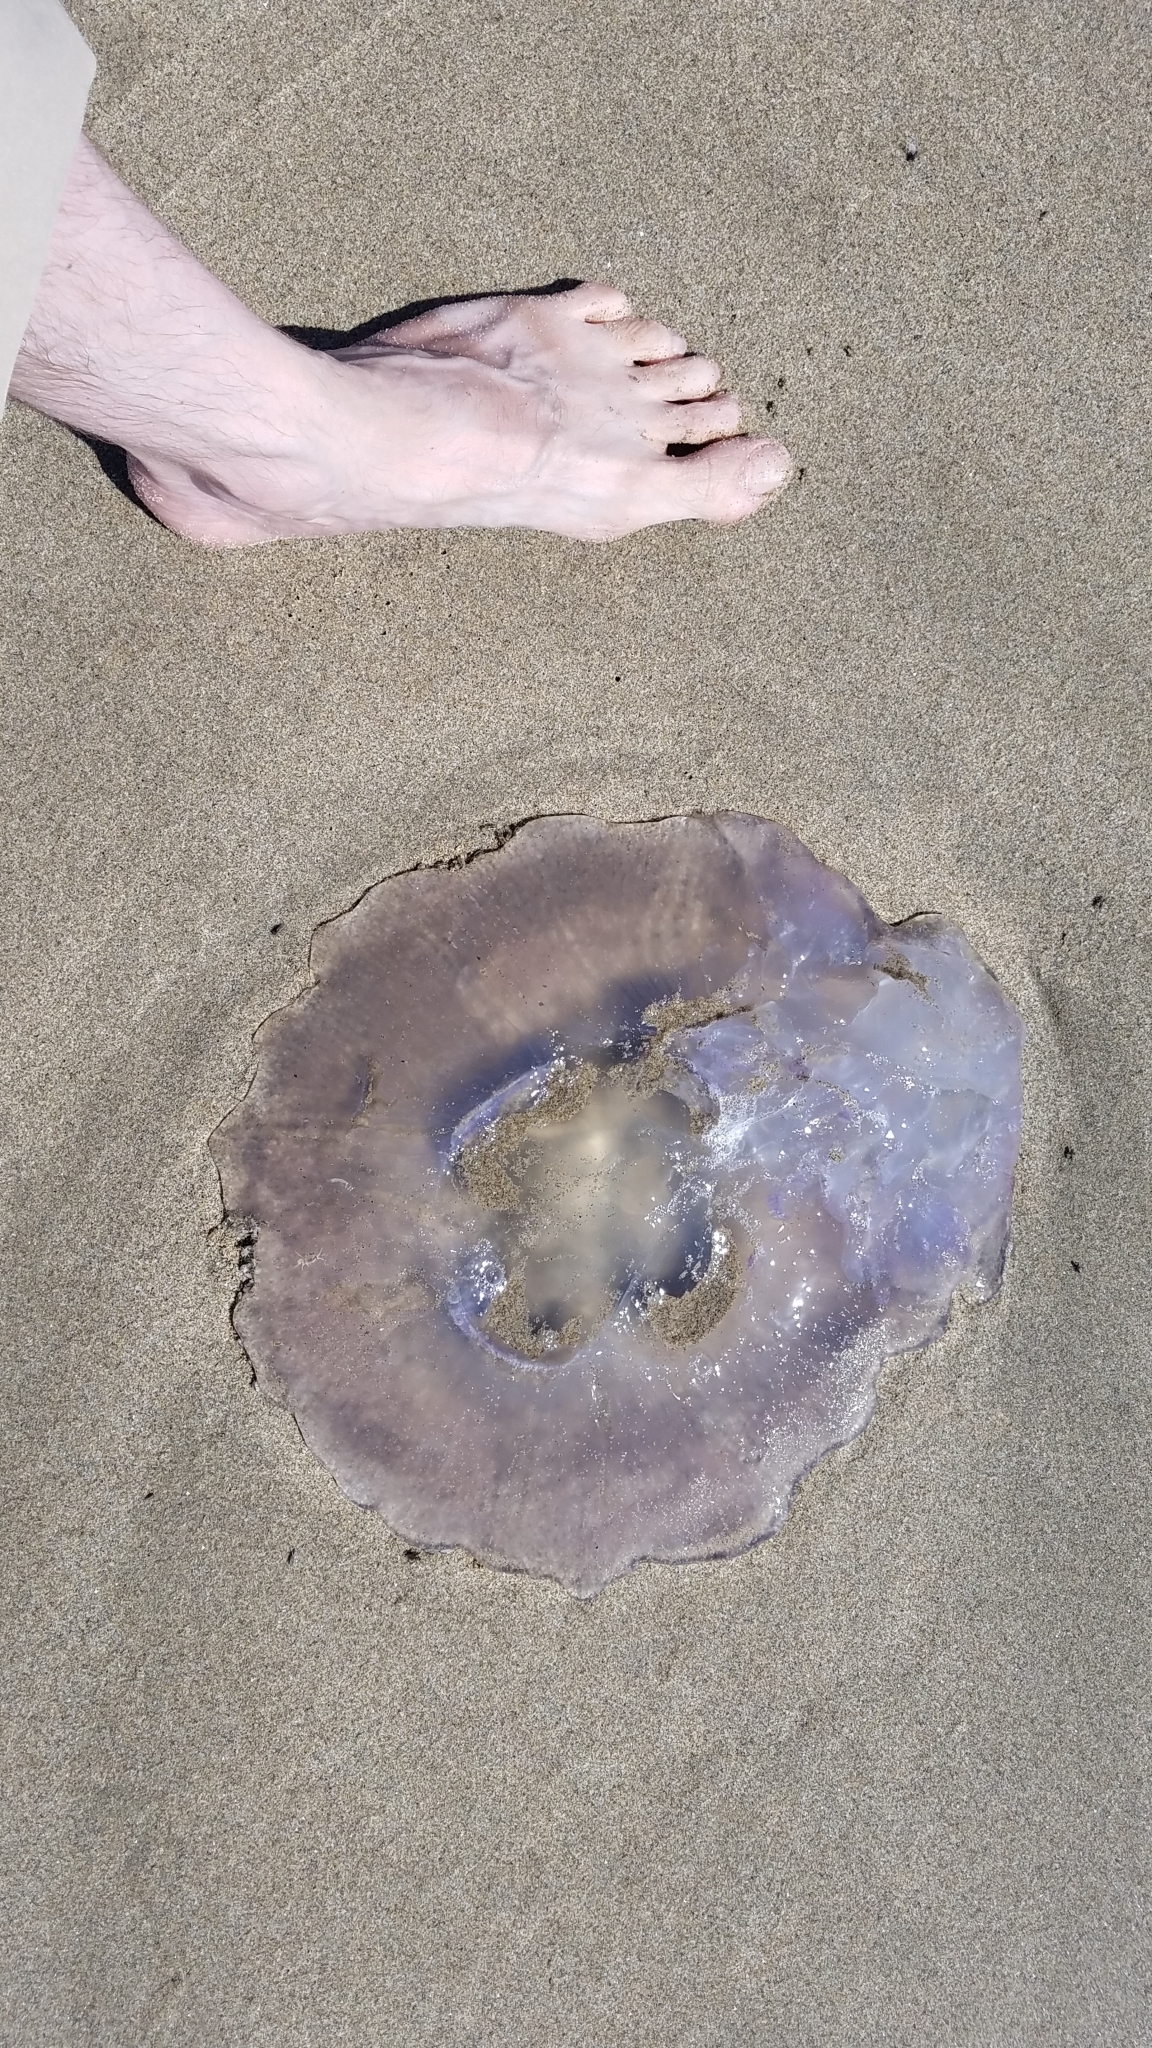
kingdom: Animalia
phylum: Cnidaria
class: Scyphozoa
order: Semaeostomeae
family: Ulmaridae
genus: Aurelia
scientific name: Aurelia labiata
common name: Pacific moon jelly
